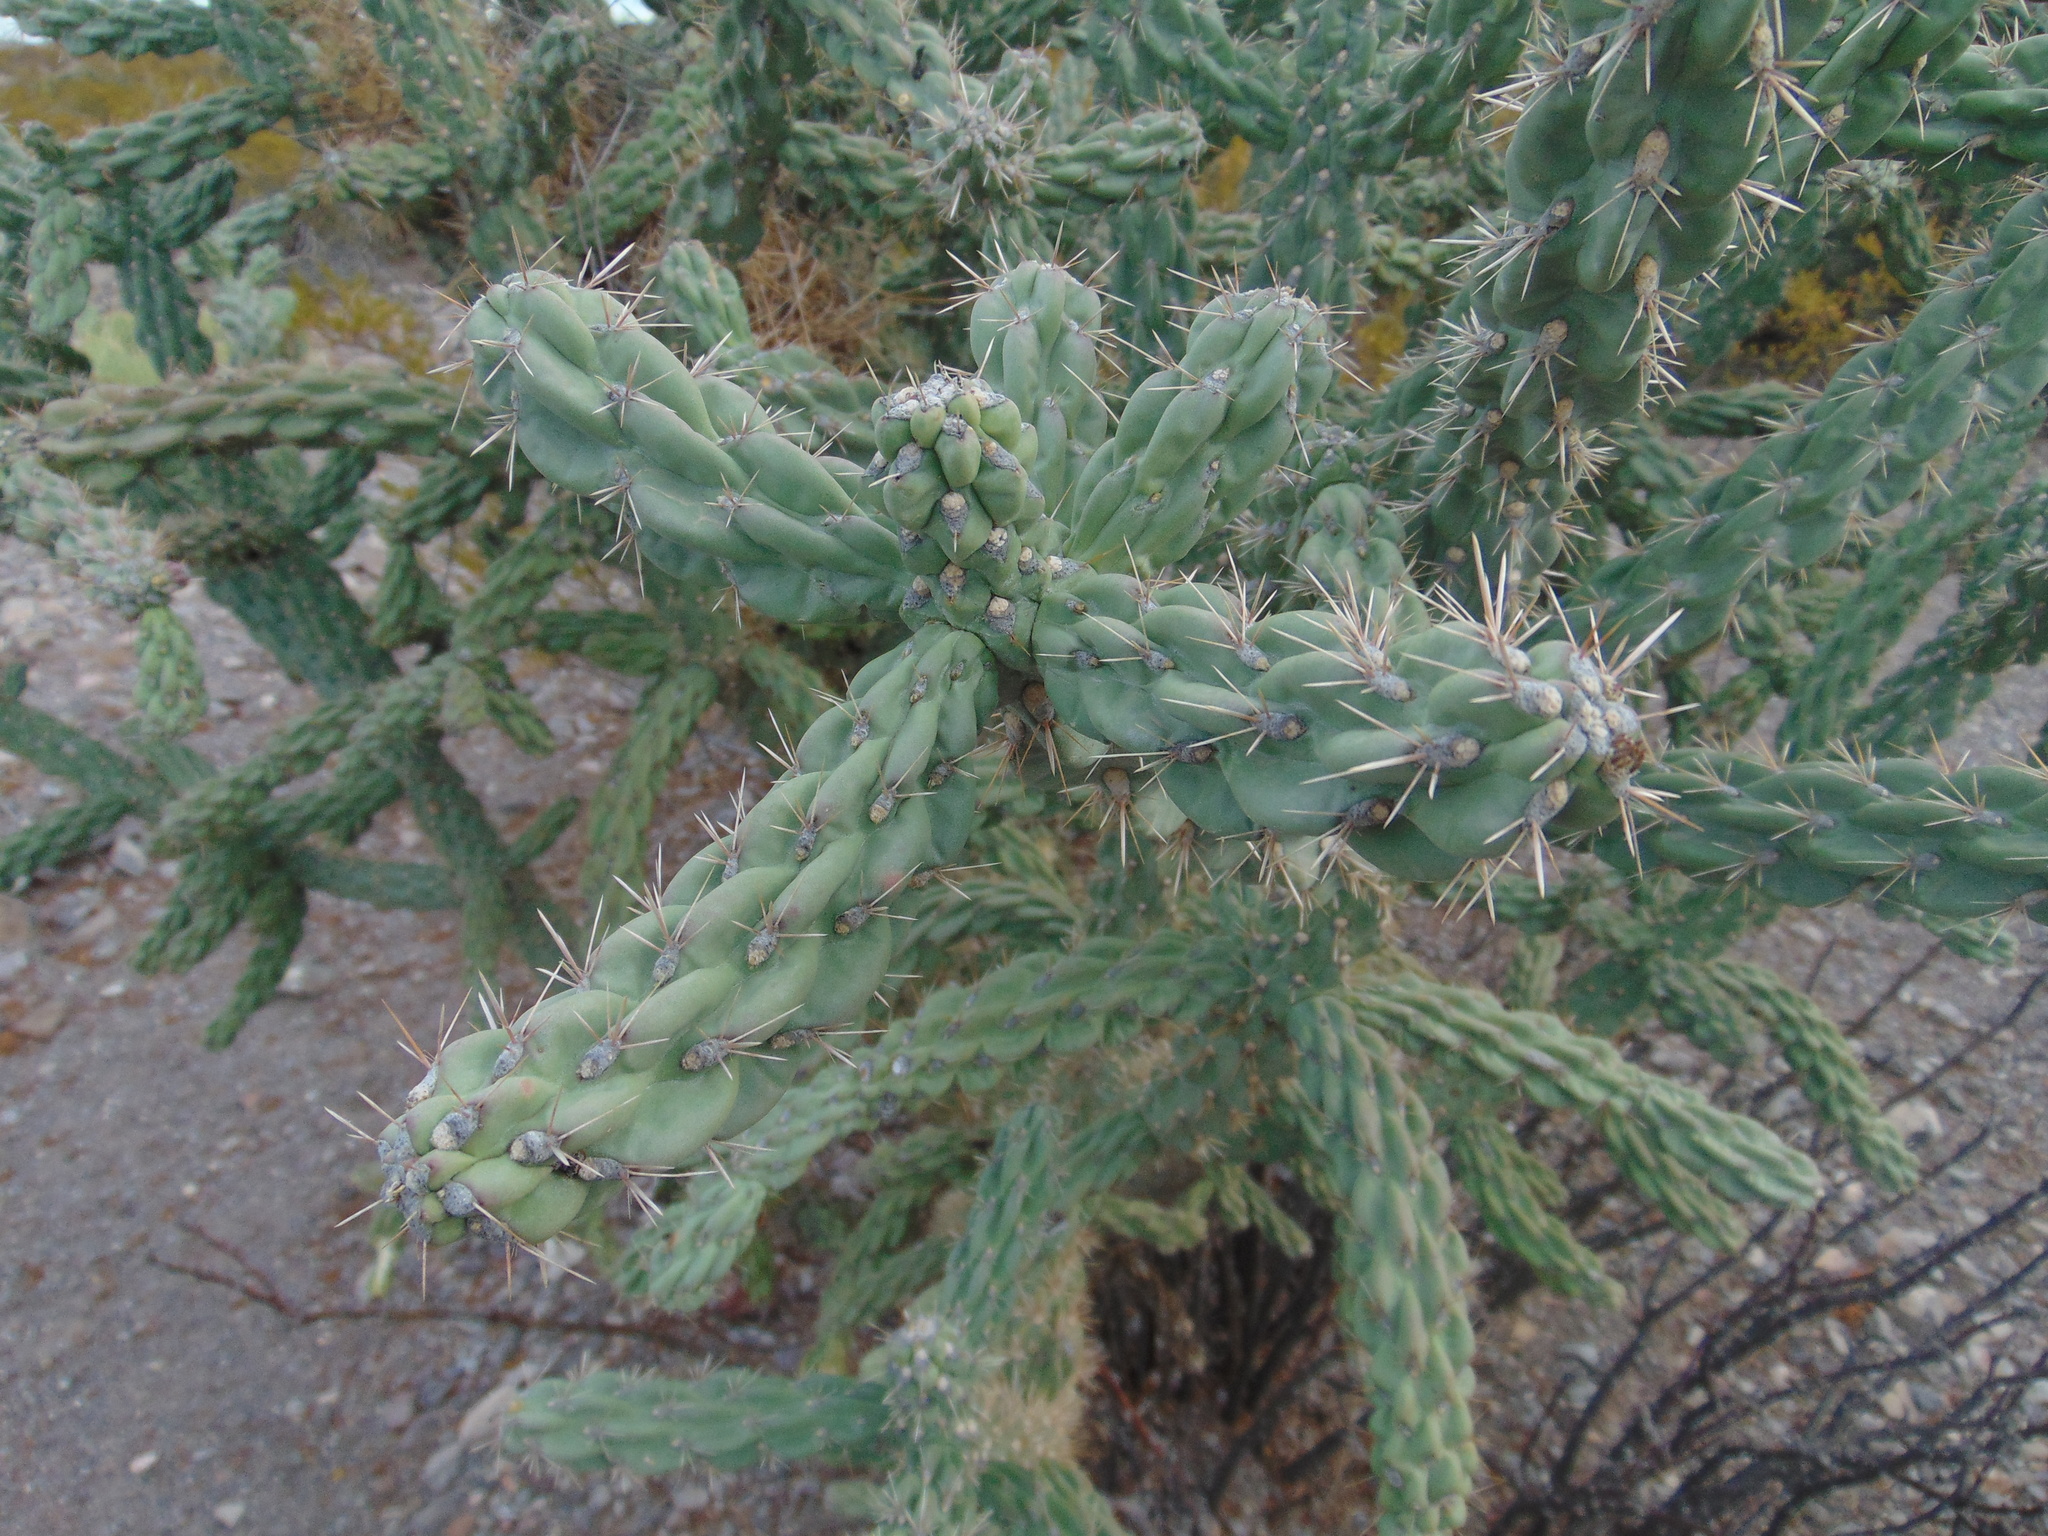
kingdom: Plantae
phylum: Tracheophyta
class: Magnoliopsida
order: Caryophyllales
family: Cactaceae
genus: Cylindropuntia
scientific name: Cylindropuntia imbricata
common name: Candelabrum cactus
